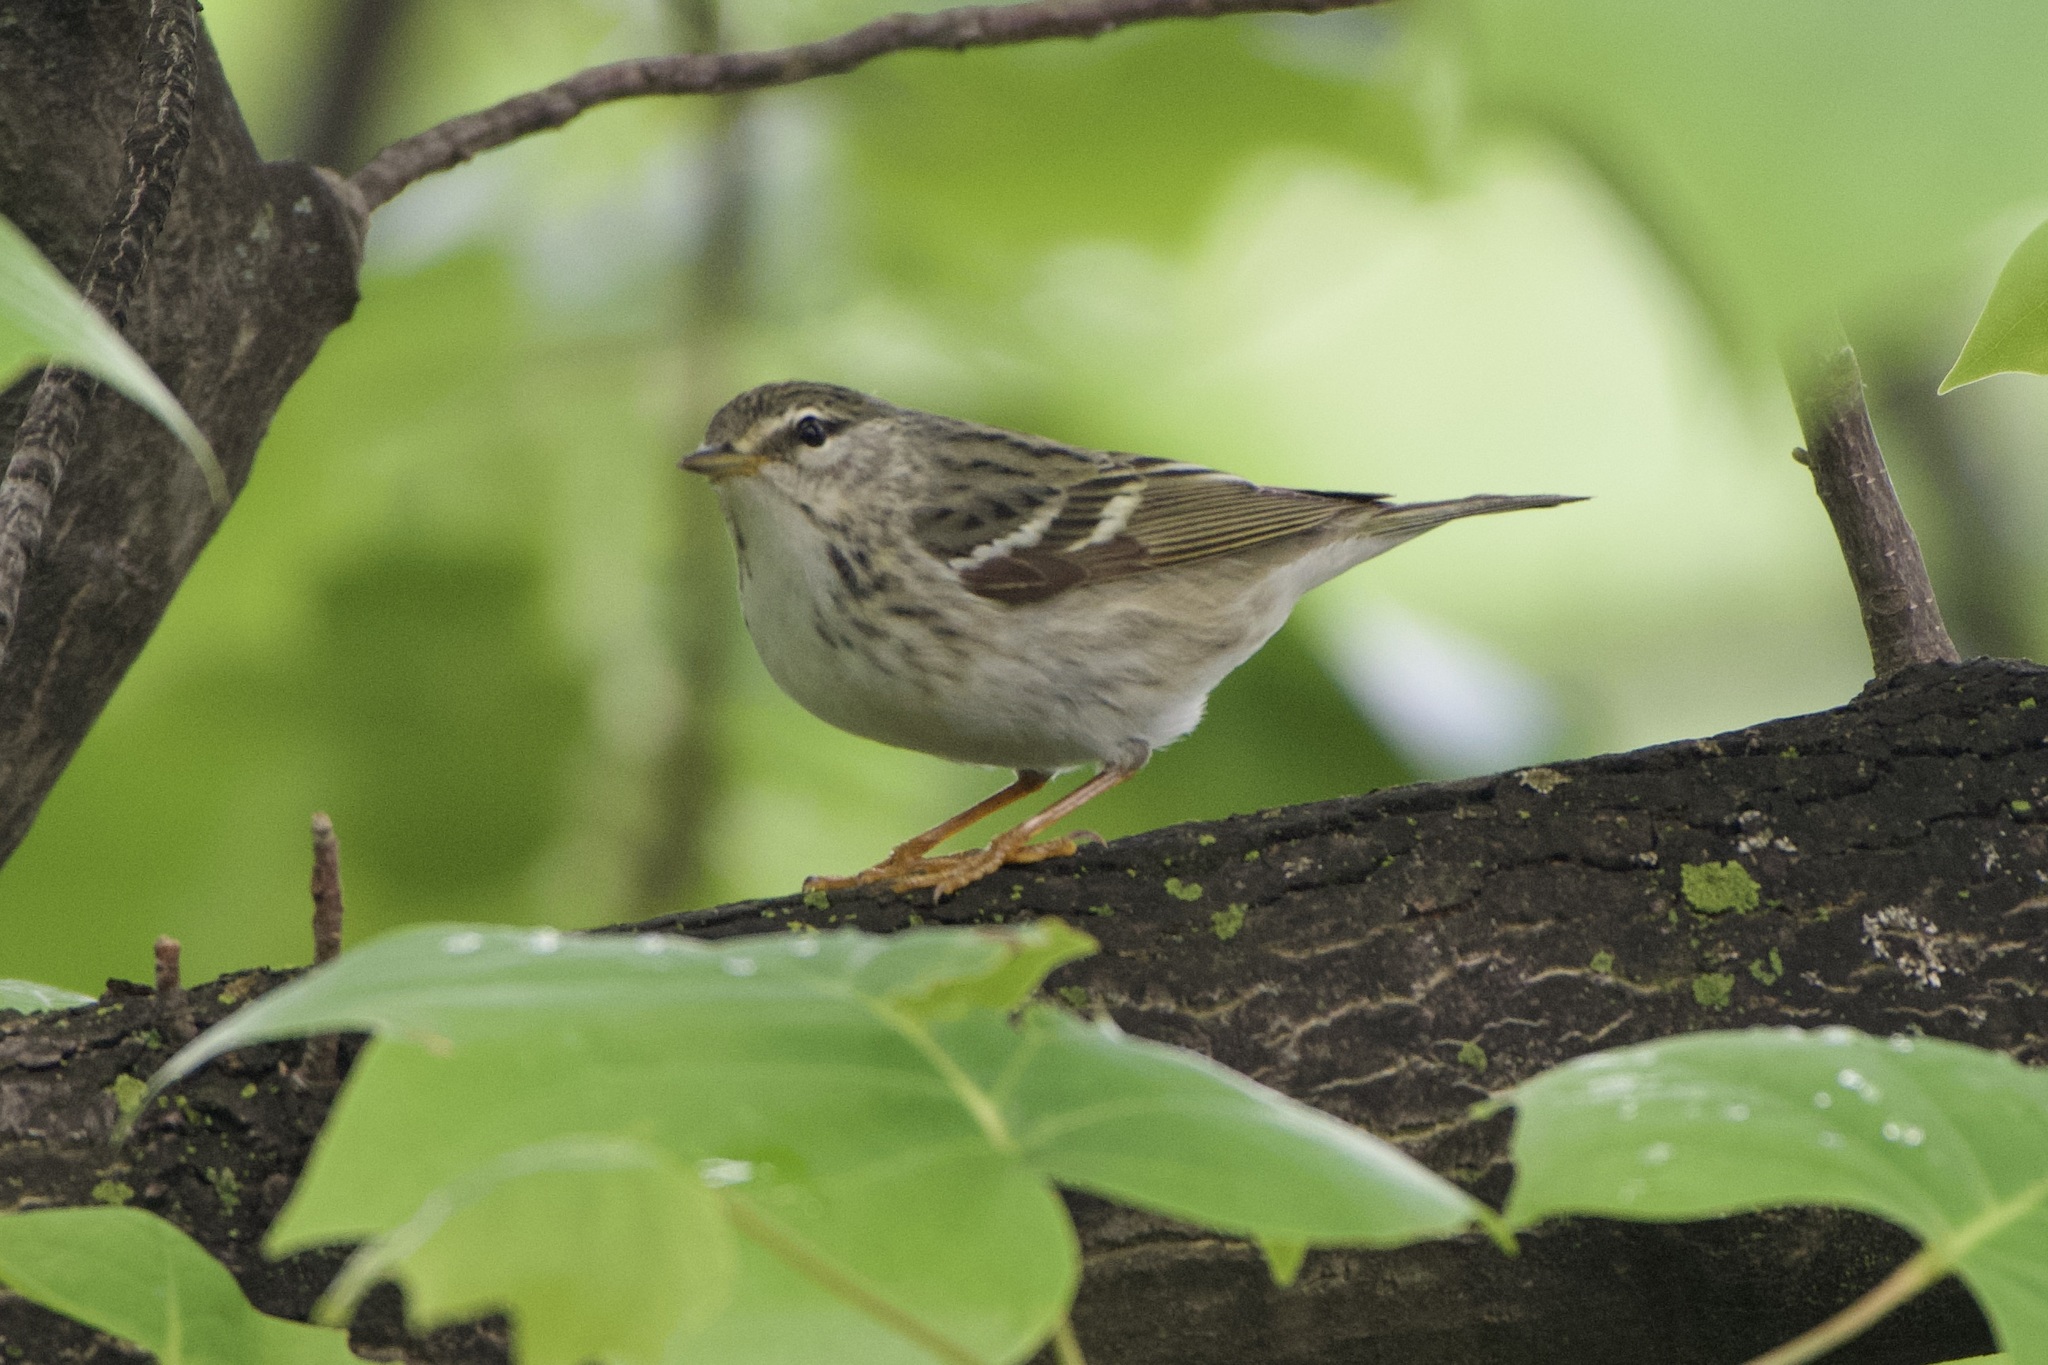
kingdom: Animalia
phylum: Chordata
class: Aves
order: Passeriformes
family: Parulidae
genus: Setophaga
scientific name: Setophaga striata
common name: Blackpoll warbler
